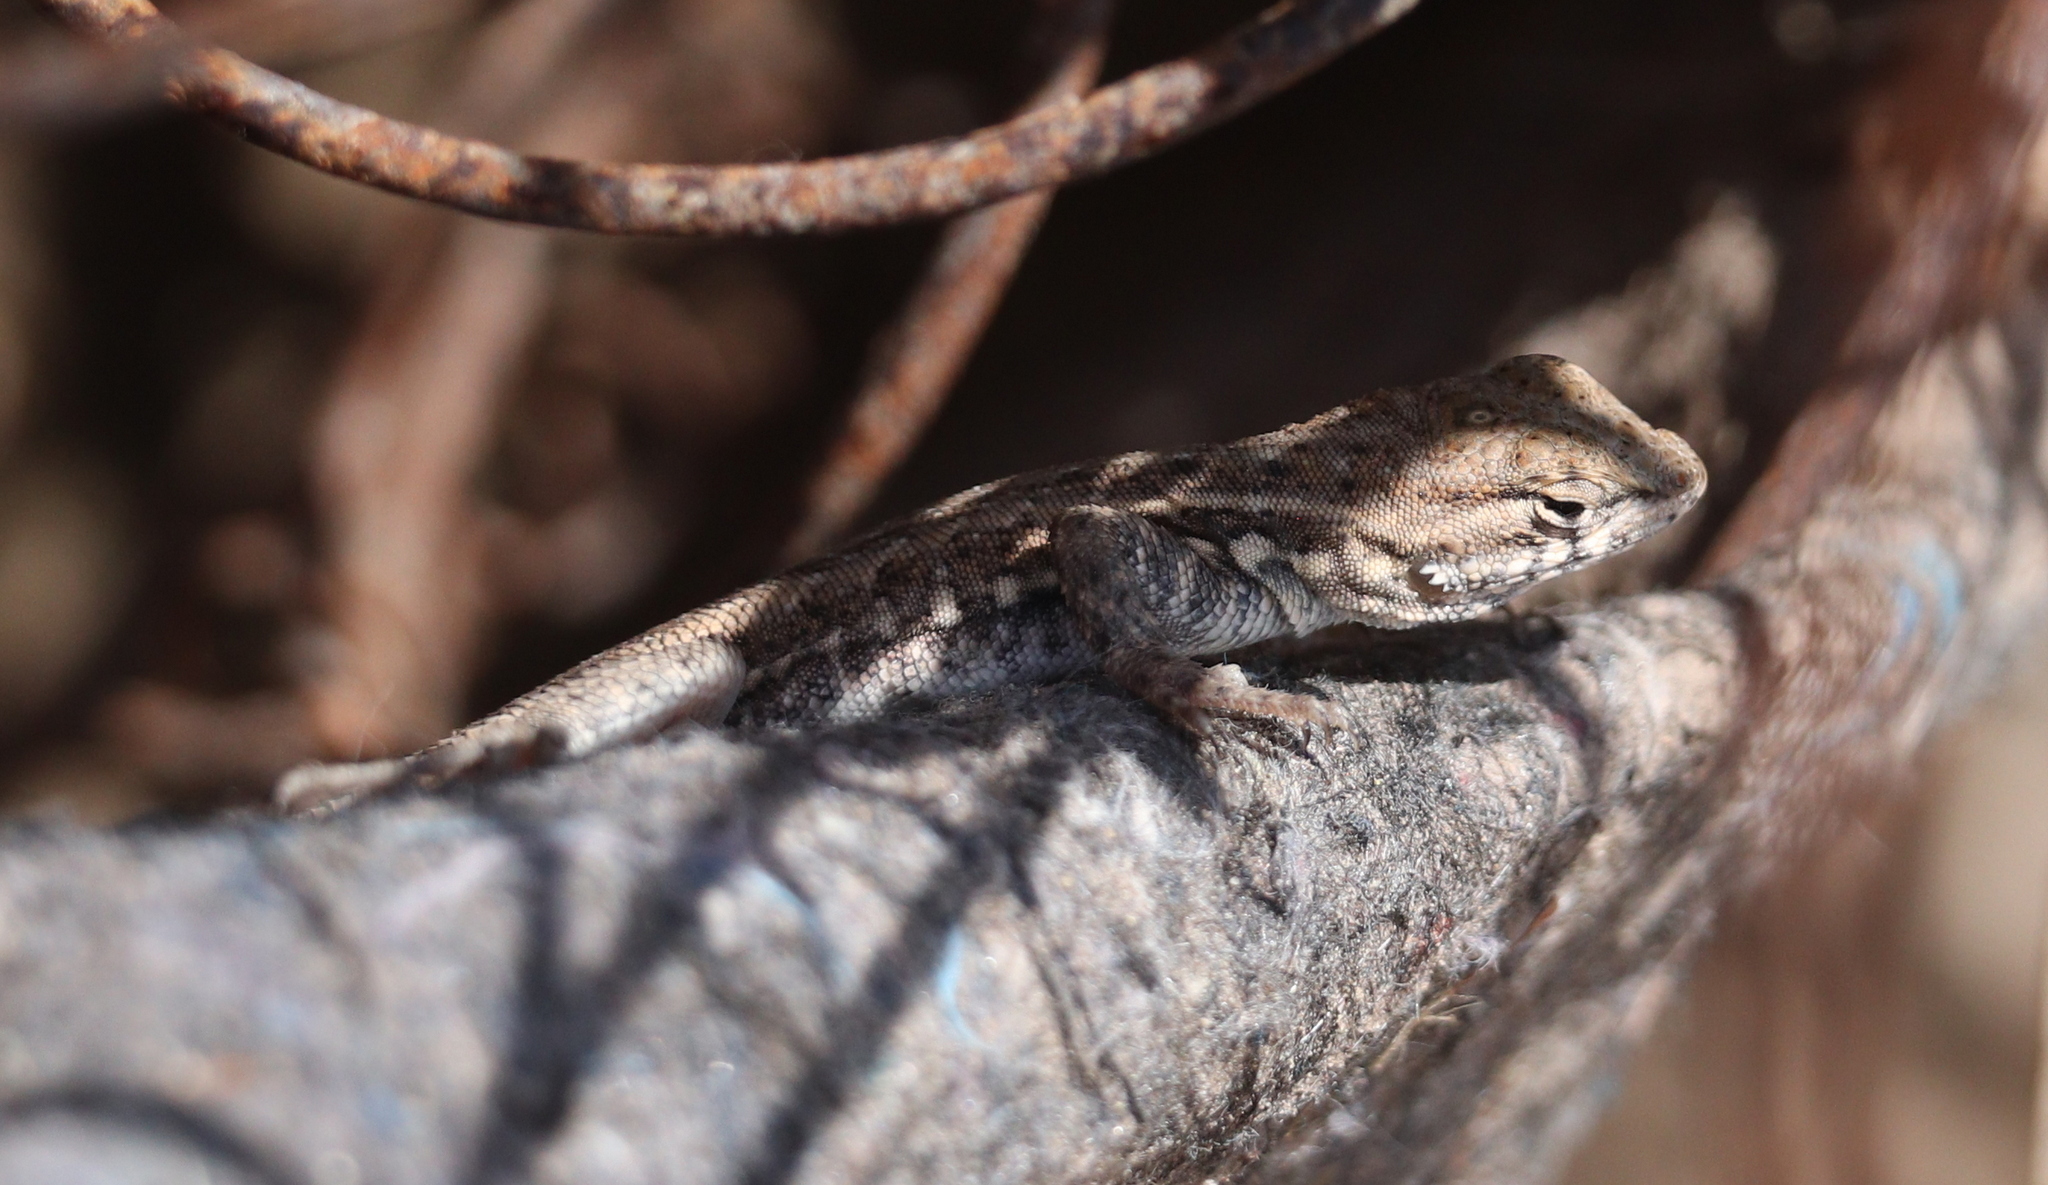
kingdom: Animalia
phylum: Chordata
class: Squamata
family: Phrynosomatidae
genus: Uta
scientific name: Uta stansburiana
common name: Side-blotched lizard
